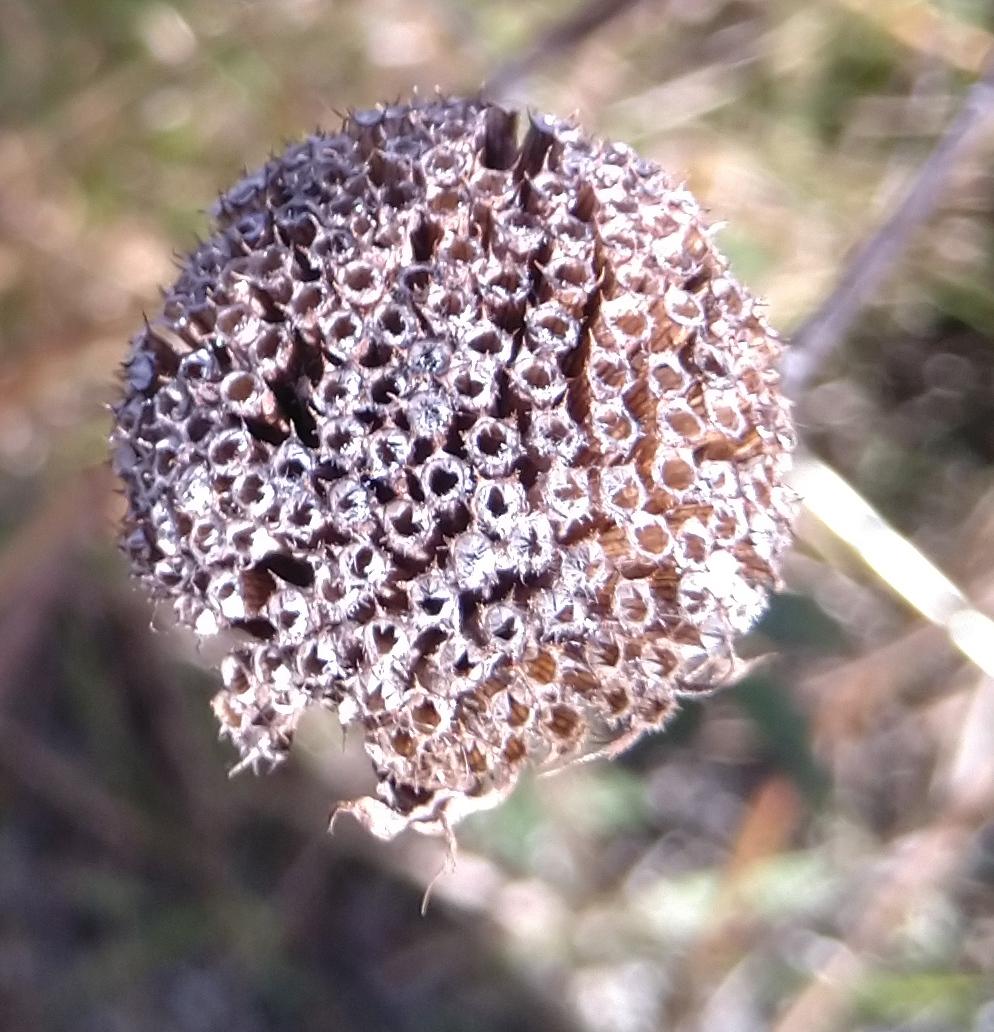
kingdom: Plantae
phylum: Tracheophyta
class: Magnoliopsida
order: Lamiales
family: Lamiaceae
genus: Monarda
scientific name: Monarda fistulosa
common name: Purple beebalm
